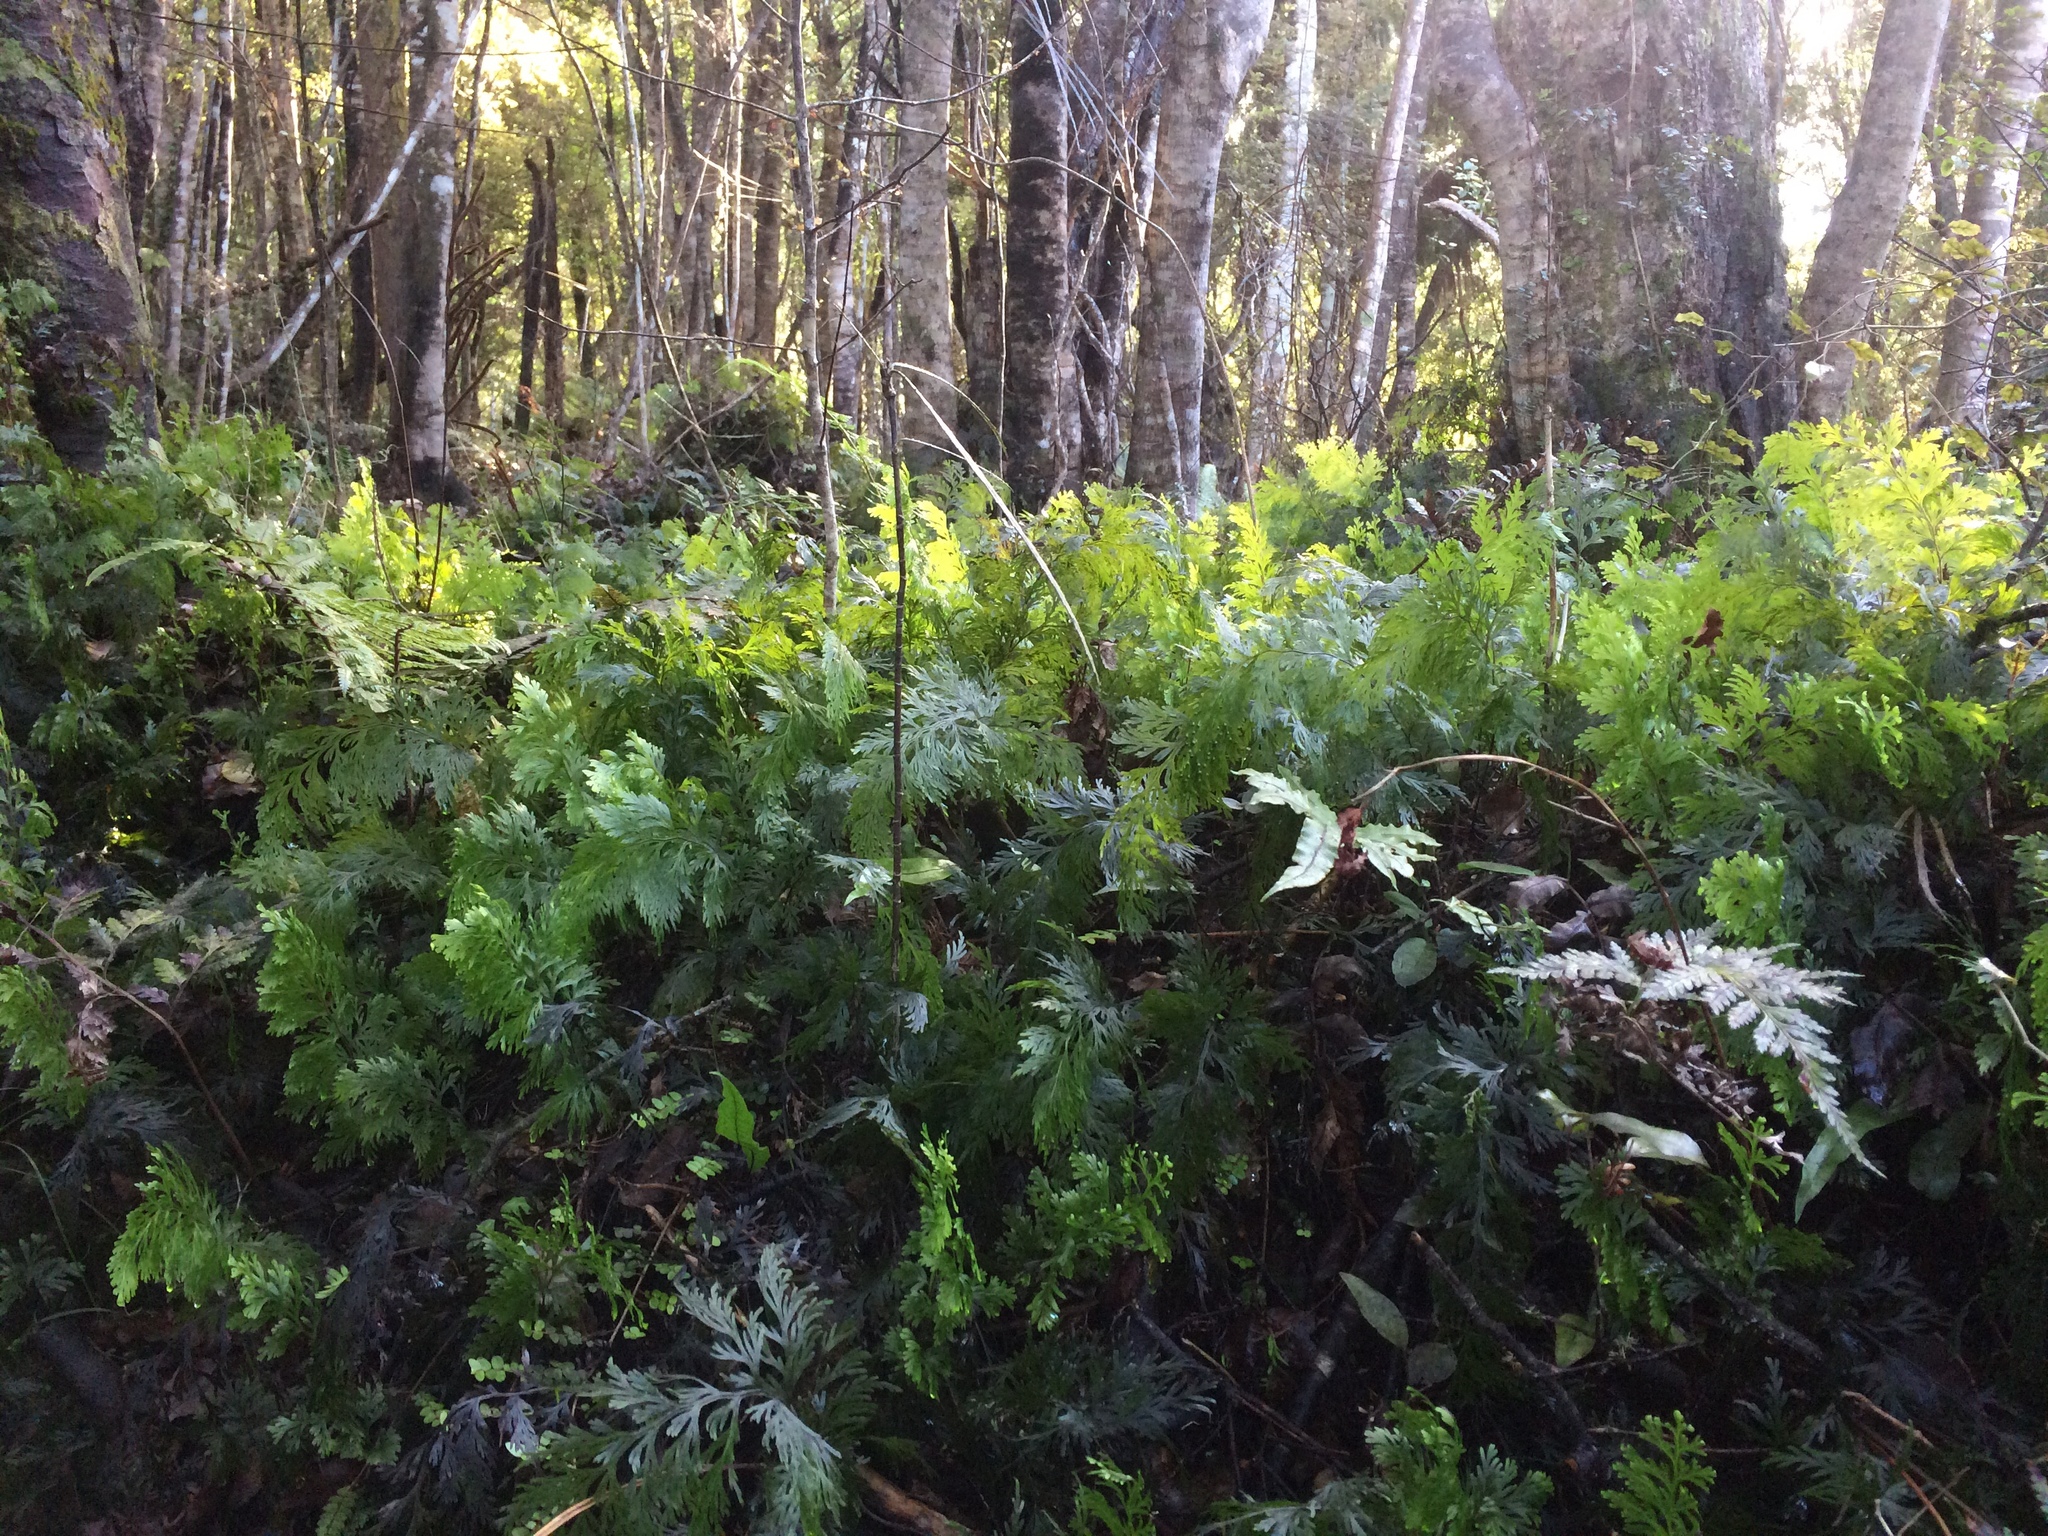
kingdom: Plantae
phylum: Tracheophyta
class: Polypodiopsida
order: Hymenophyllales
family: Hymenophyllaceae
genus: Hymenophyllum
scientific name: Hymenophyllum dilatatum
